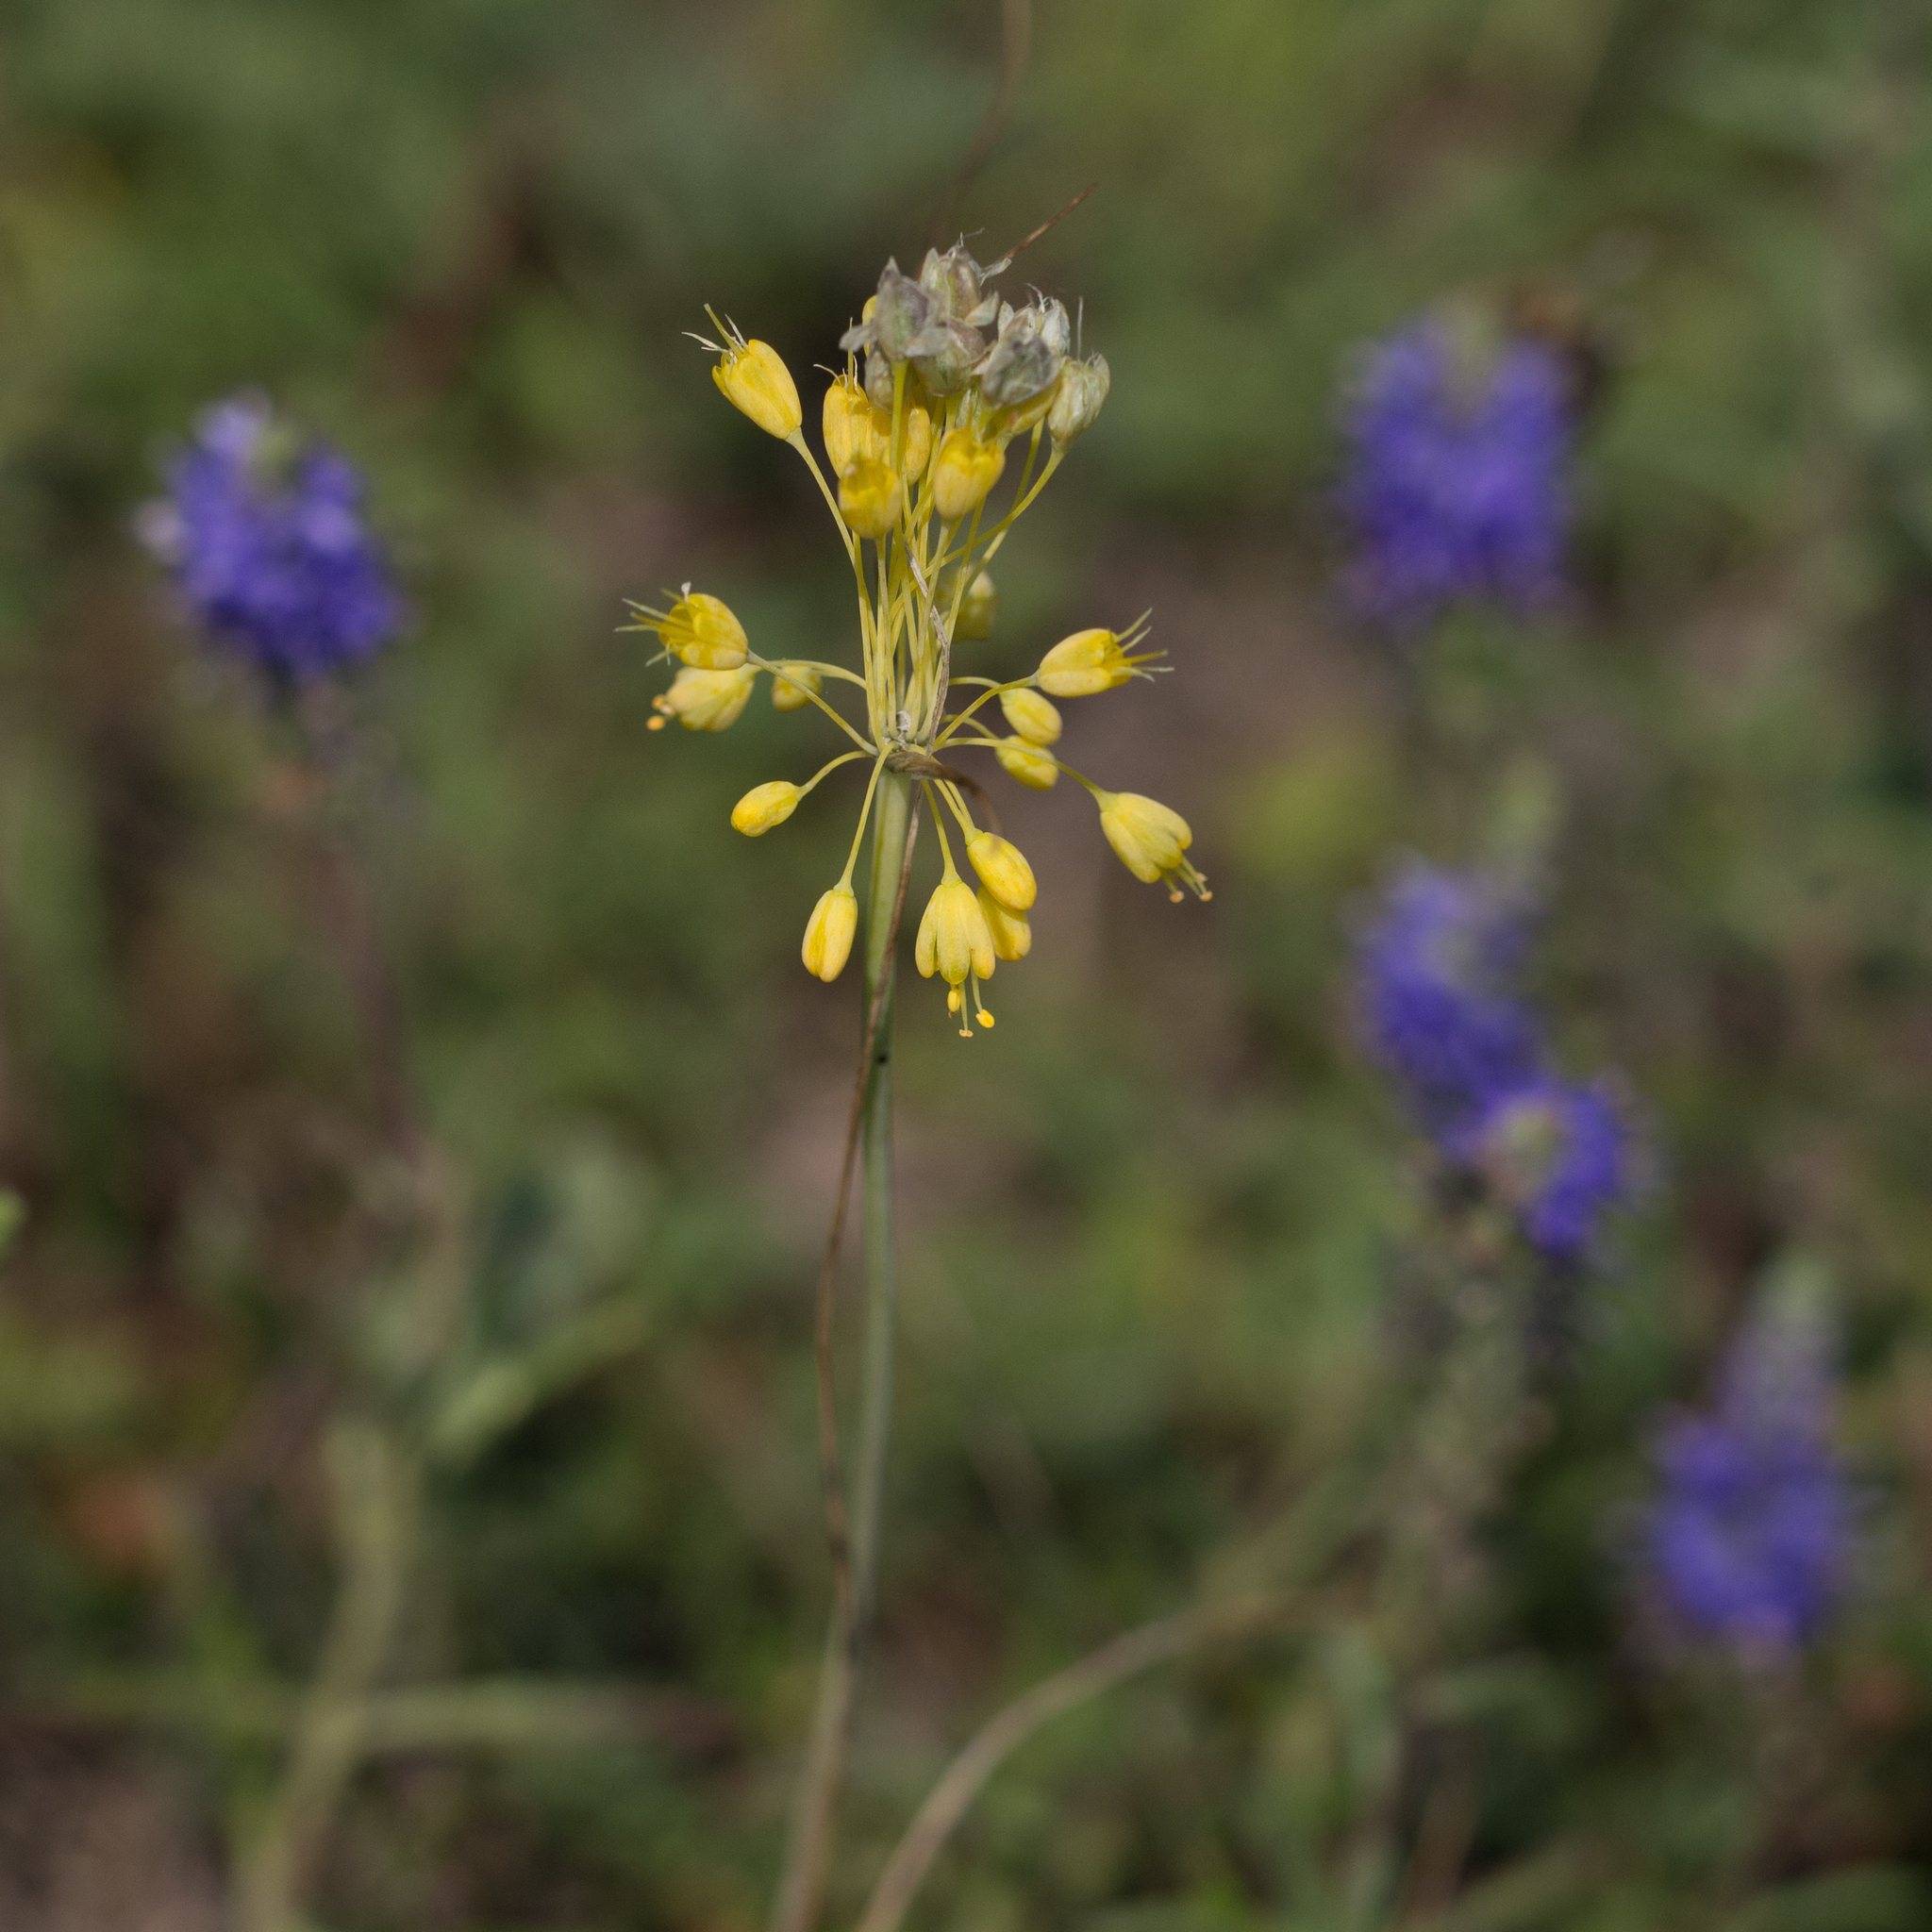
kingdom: Plantae
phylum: Tracheophyta
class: Liliopsida
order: Asparagales
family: Amaryllidaceae
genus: Allium
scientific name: Allium flavum
